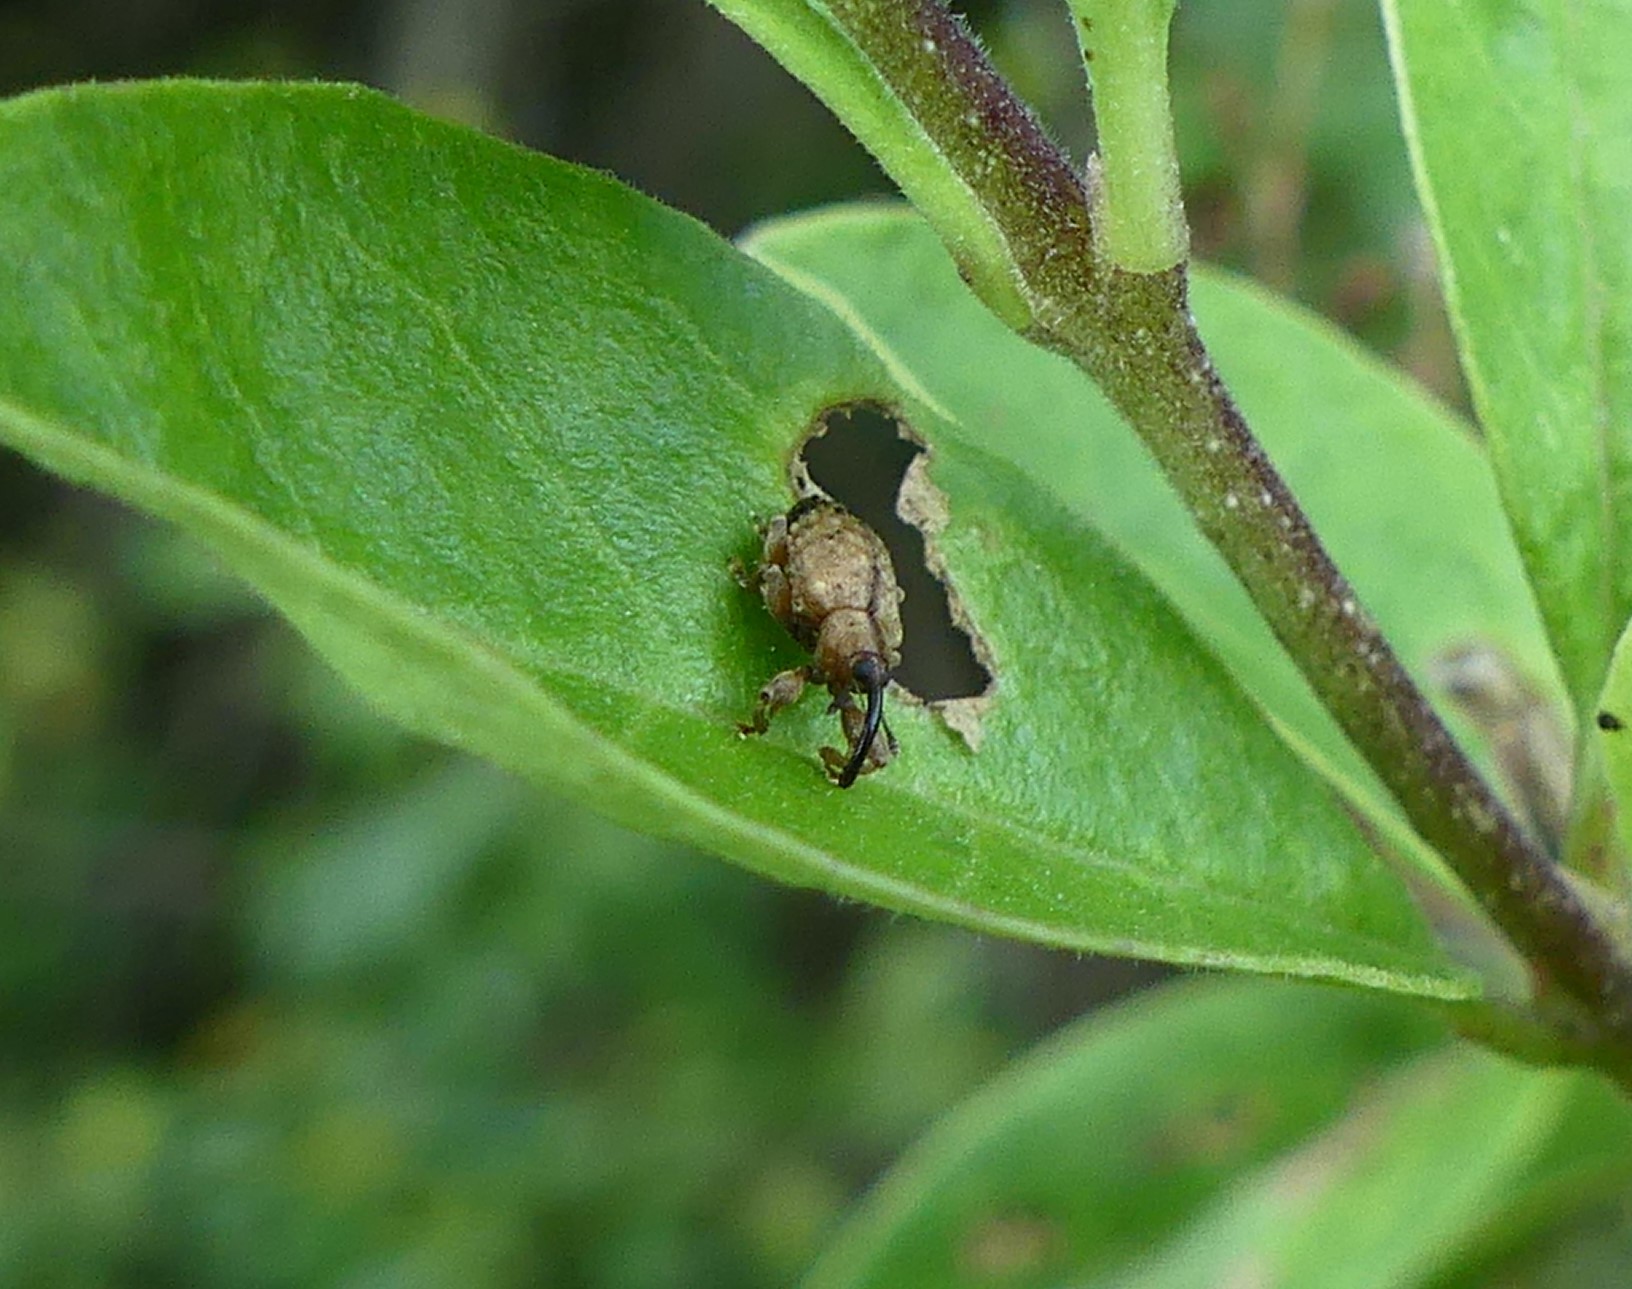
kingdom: Animalia
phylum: Arthropoda
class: Insecta
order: Coleoptera
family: Curculionidae
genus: Ochyromera
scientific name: Ochyromera ligustri
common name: Weevil
